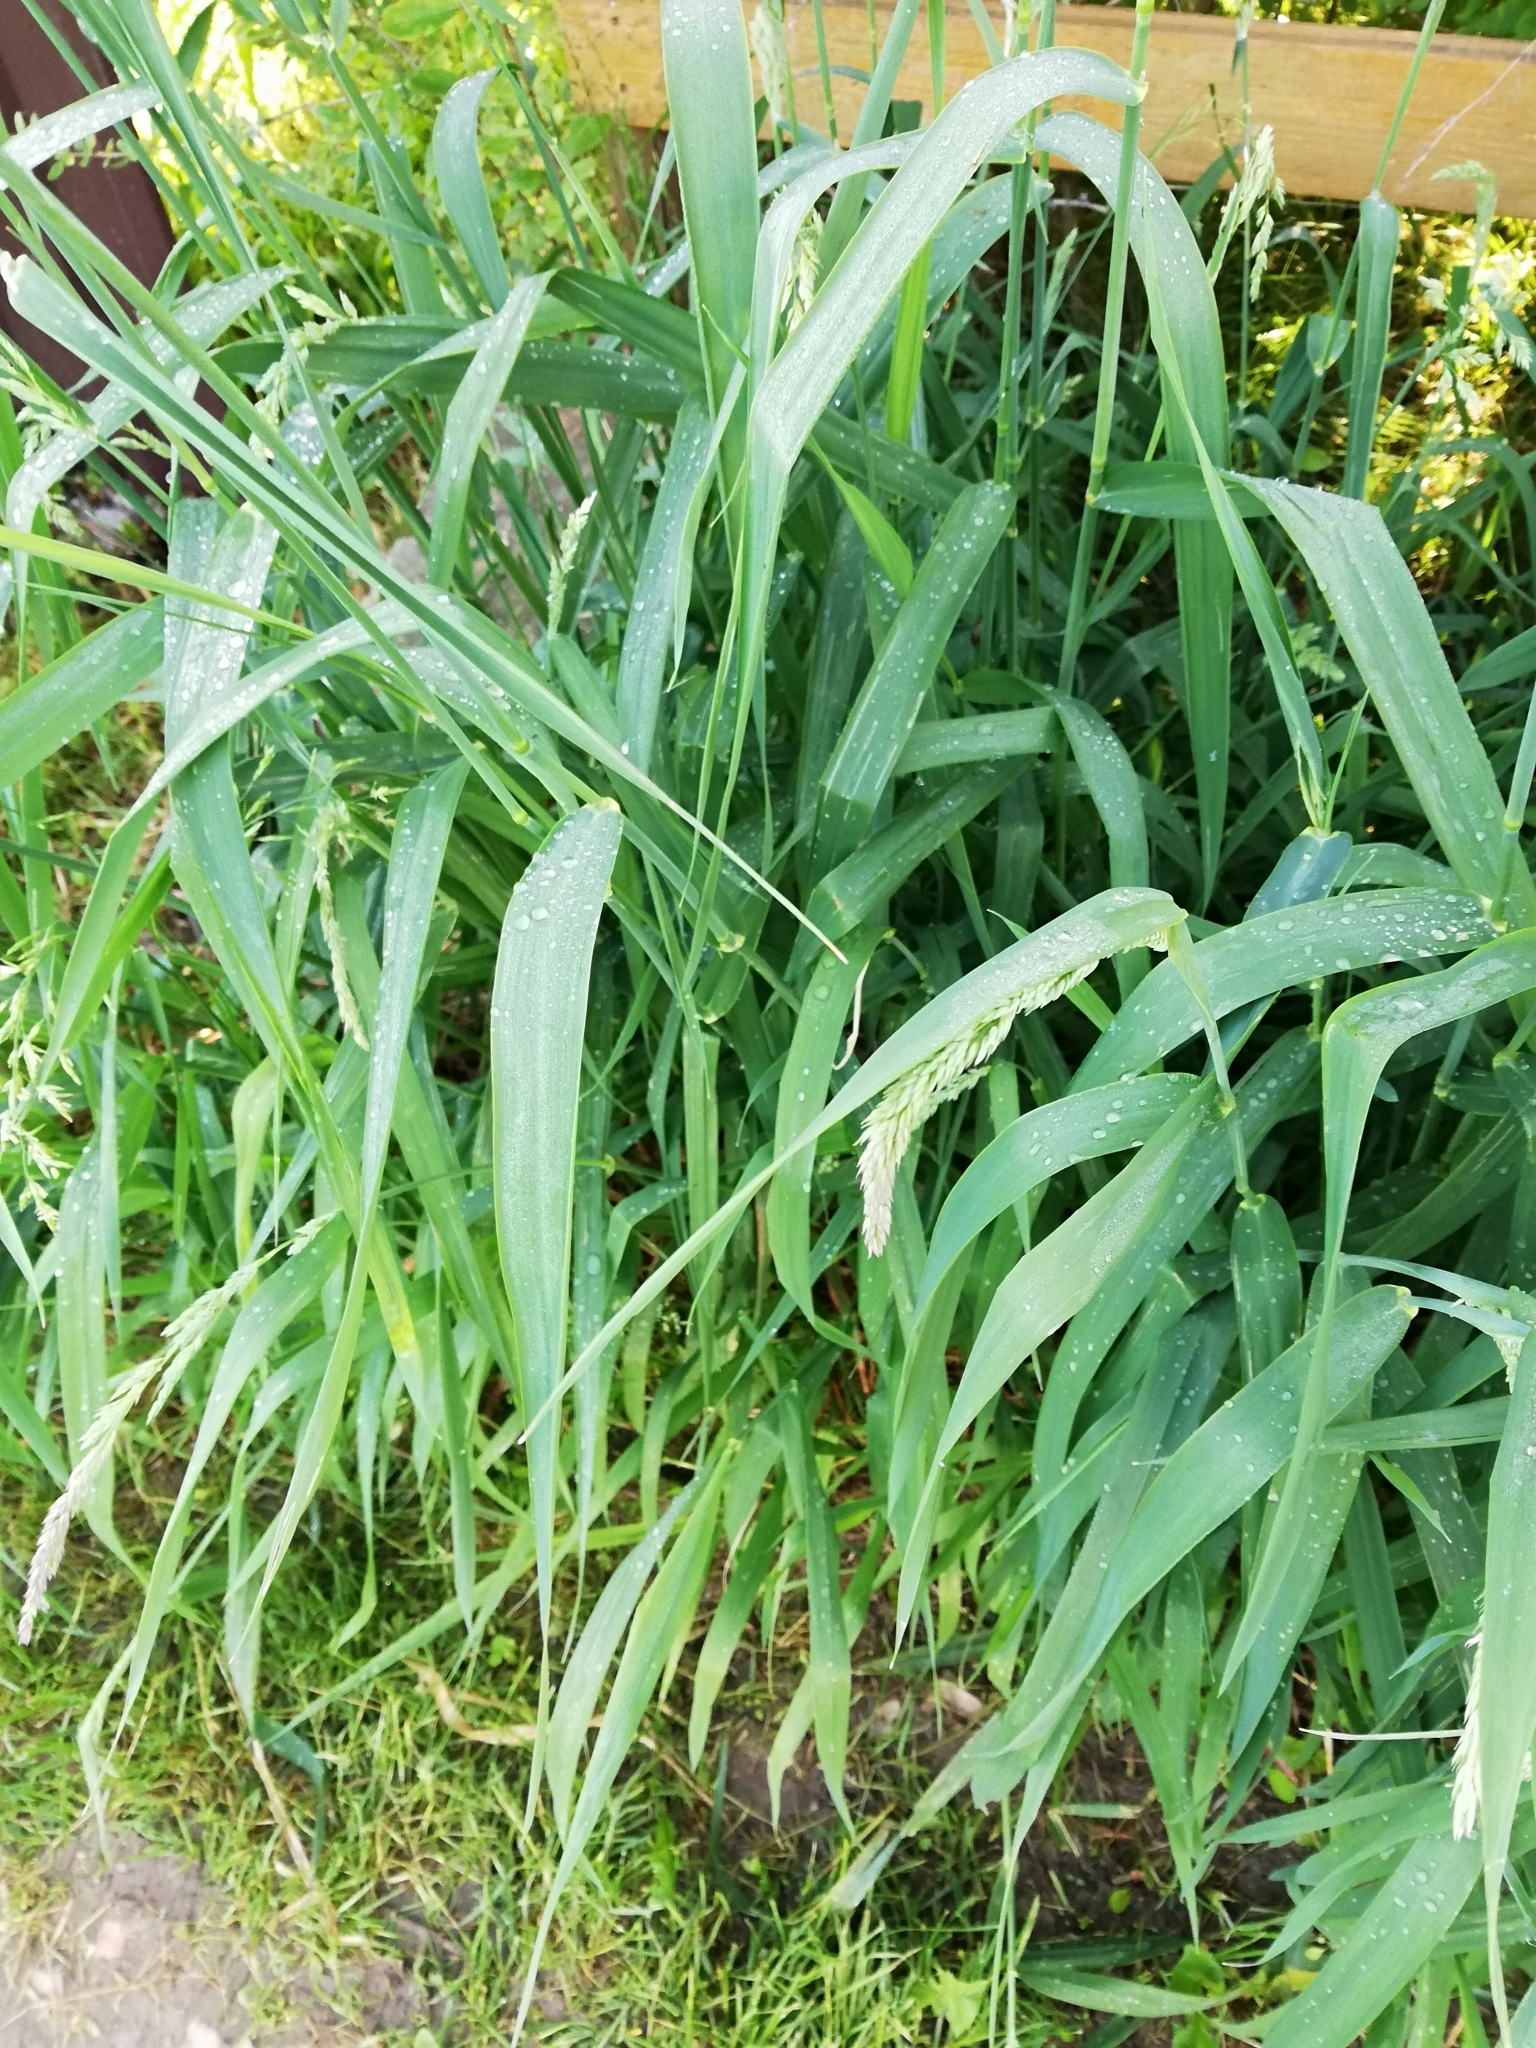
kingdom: Plantae
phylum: Tracheophyta
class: Liliopsida
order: Poales
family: Poaceae
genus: Phalaris
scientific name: Phalaris arundinacea
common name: Reed canary-grass
